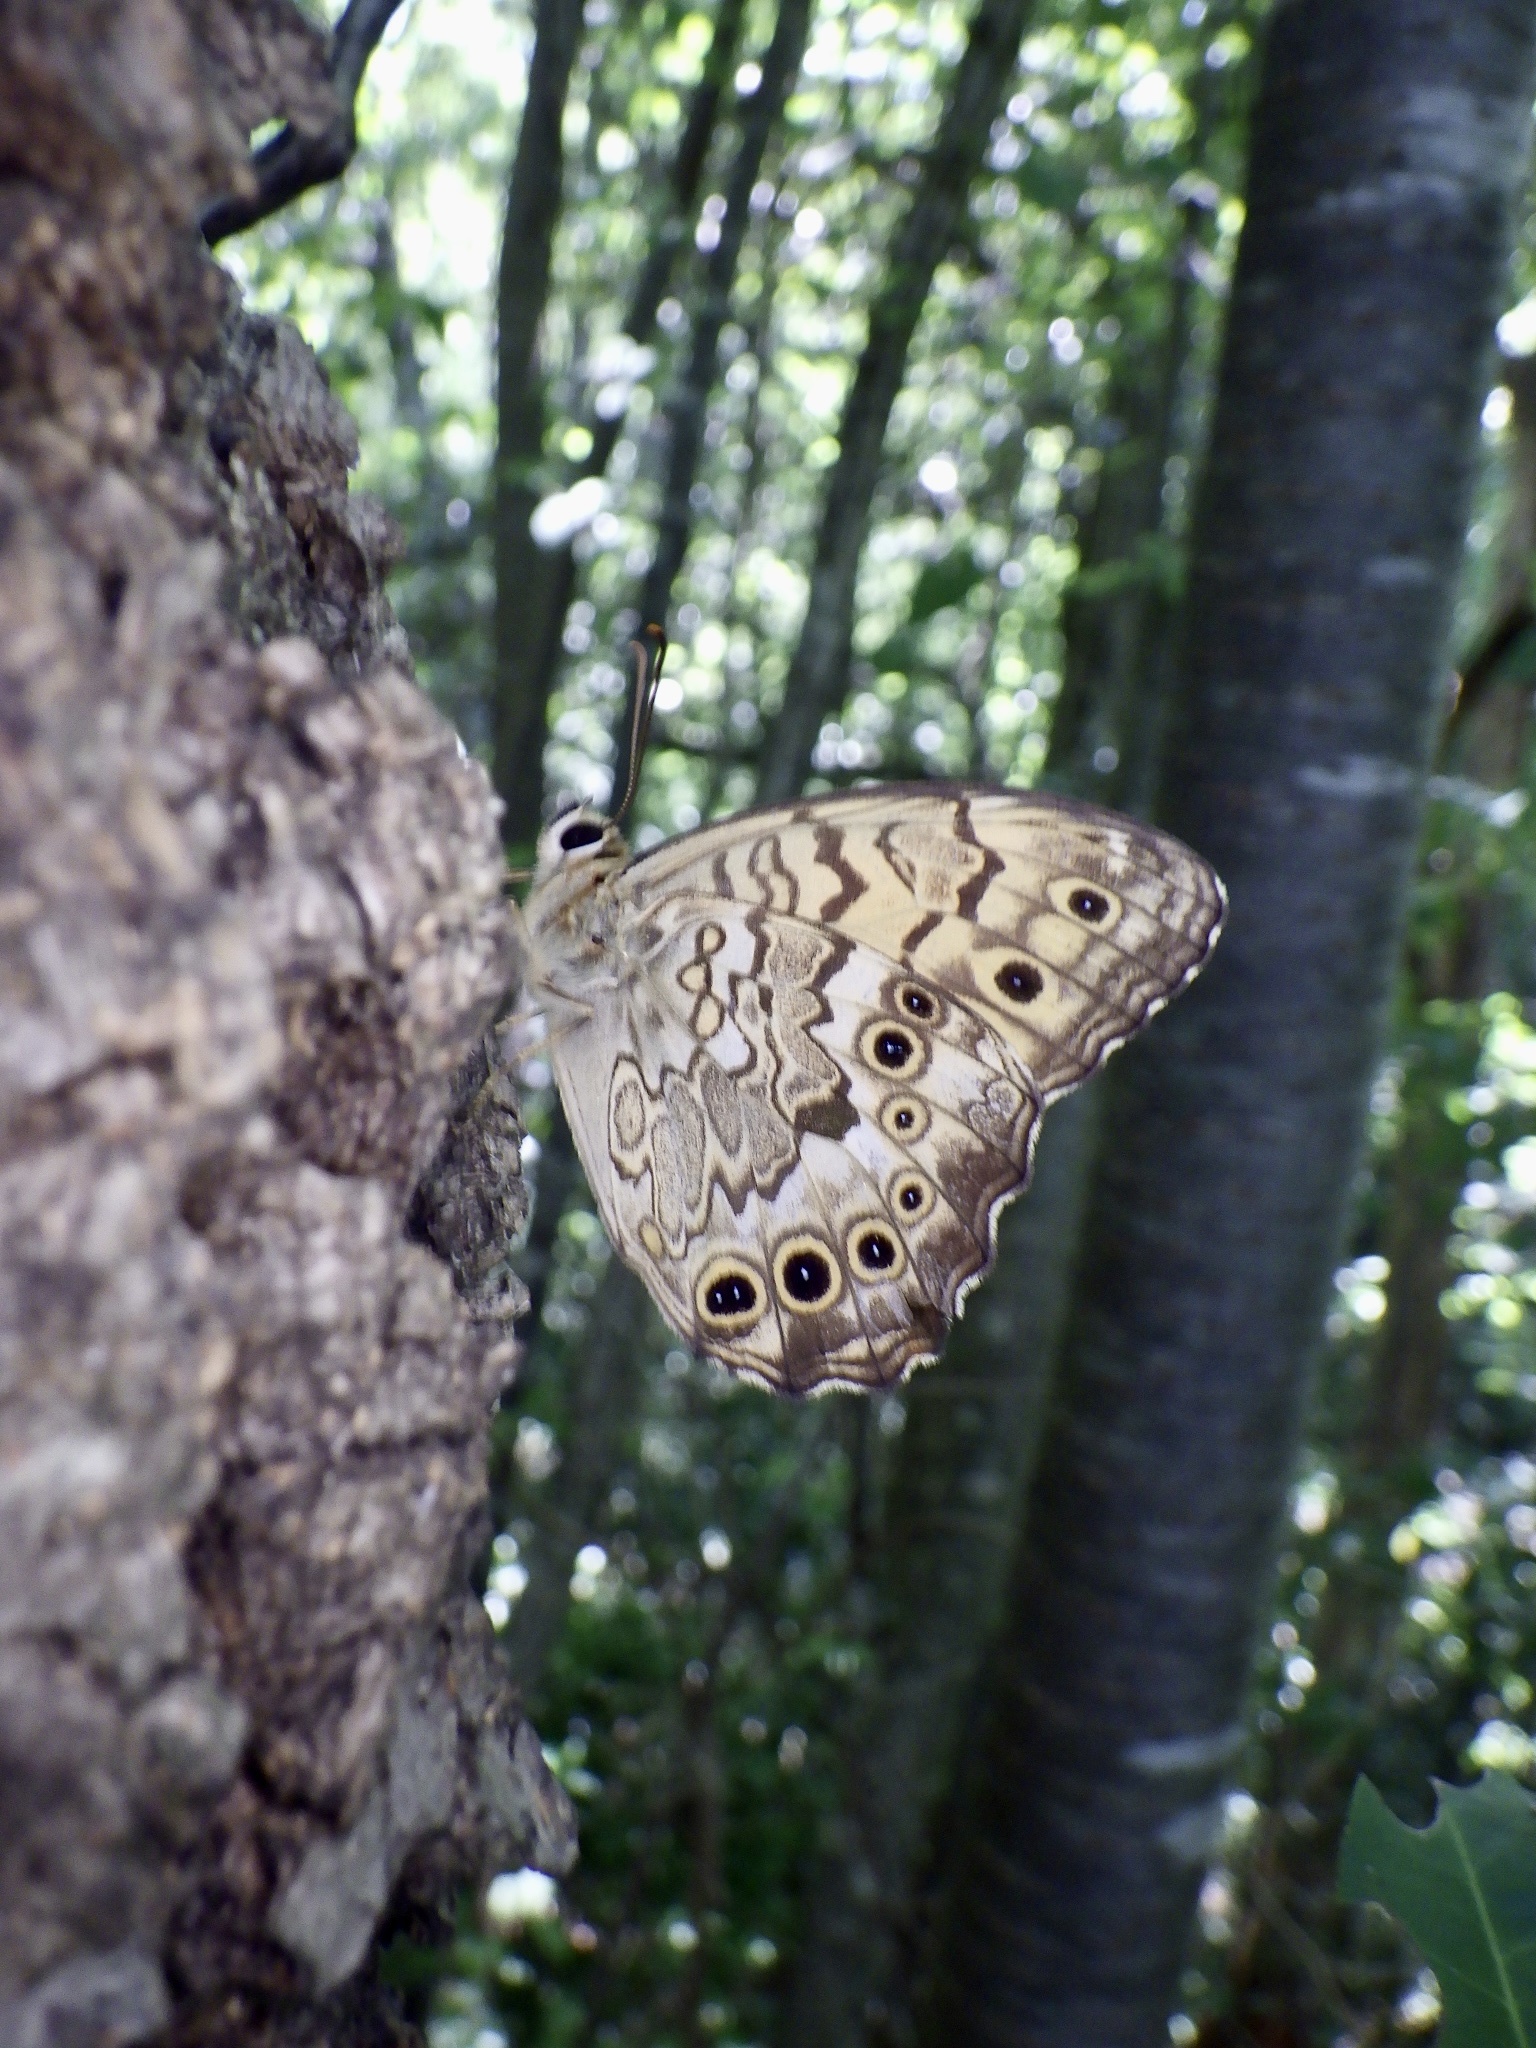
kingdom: Animalia
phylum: Arthropoda
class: Insecta
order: Lepidoptera
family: Nymphalidae
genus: Neope
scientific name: Neope goschkevitschii
